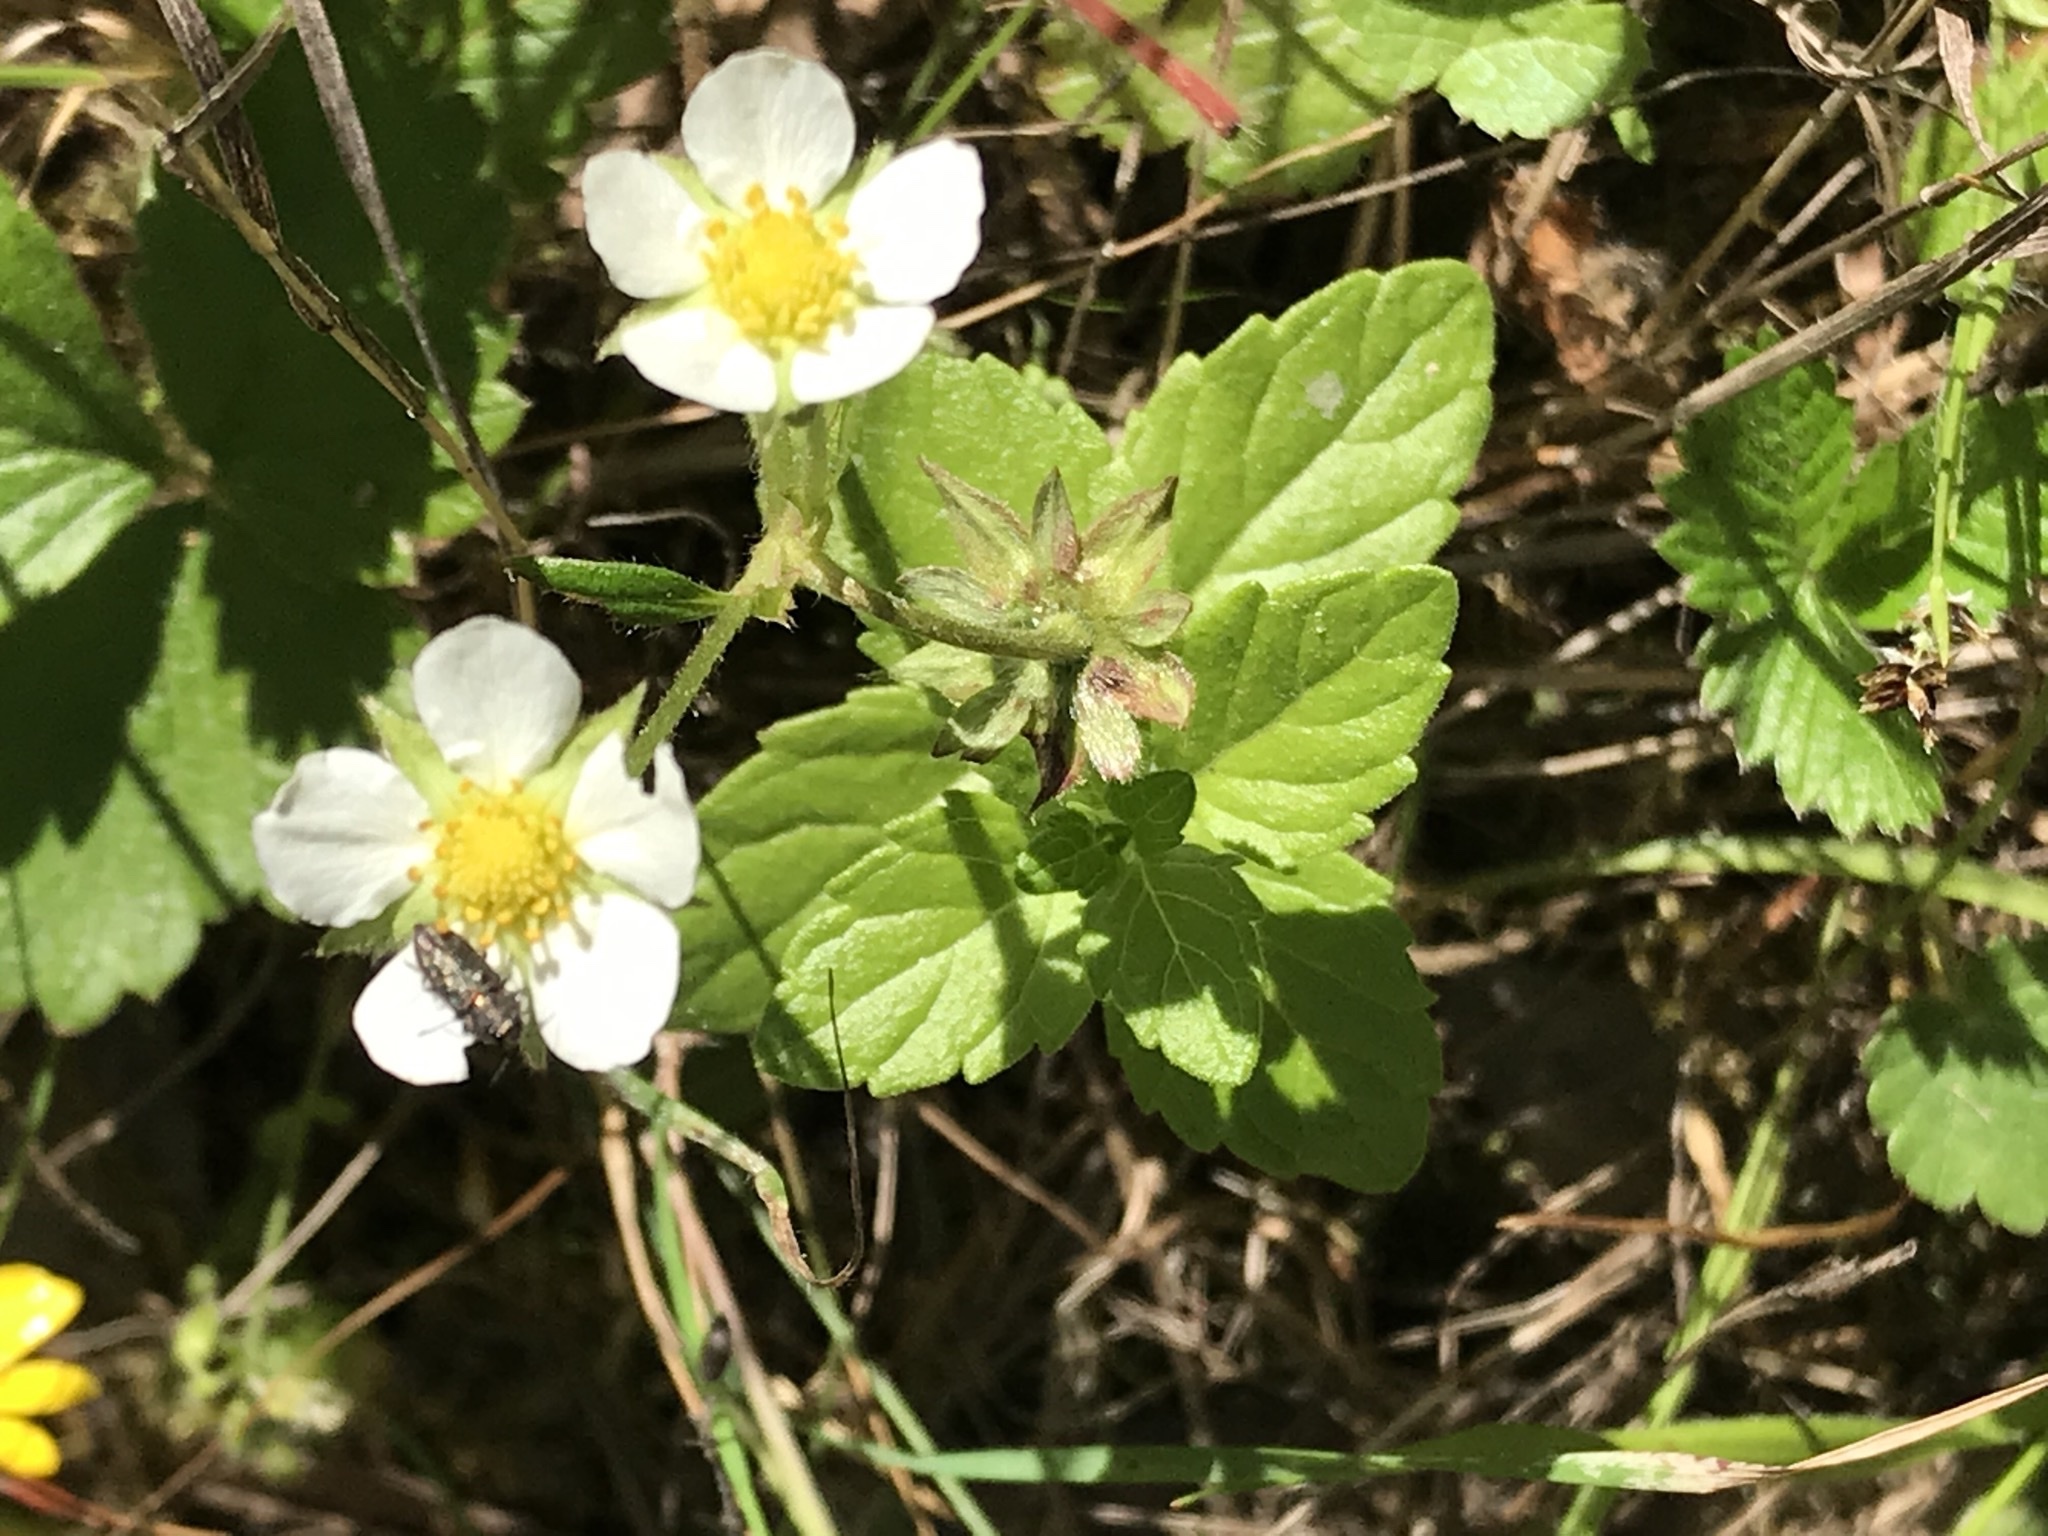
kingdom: Plantae
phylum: Tracheophyta
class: Magnoliopsida
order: Rosales
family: Rosaceae
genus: Fragaria
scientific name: Fragaria vesca
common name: Wild strawberry
